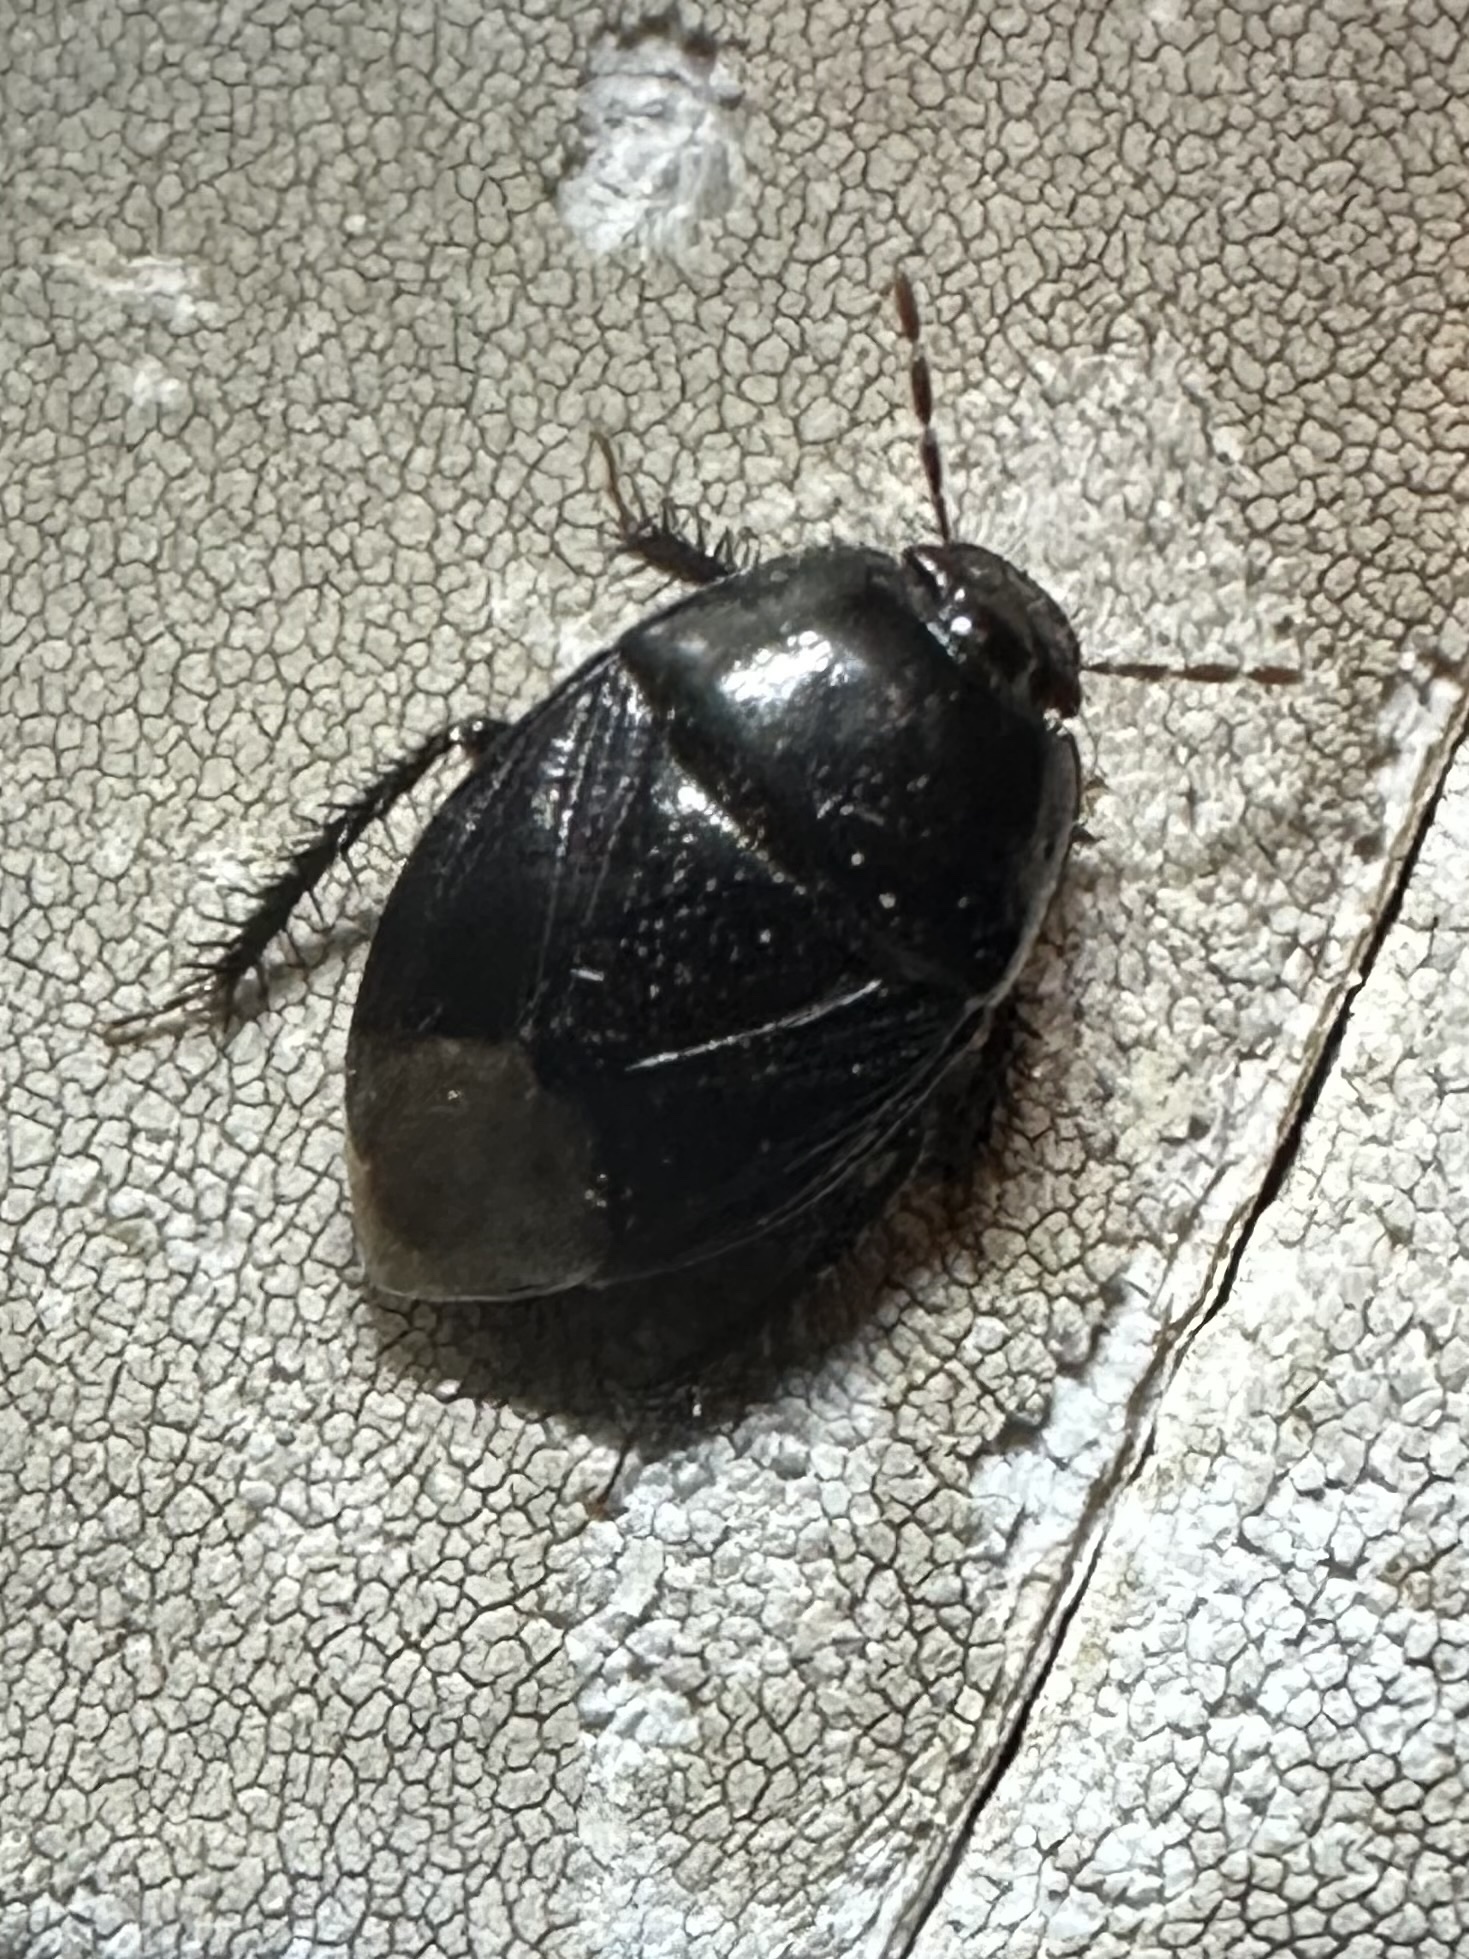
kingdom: Animalia
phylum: Arthropoda
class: Insecta
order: Hemiptera
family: Cydnidae
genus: Pangaeus
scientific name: Pangaeus bilineatus
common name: Burrower bug
